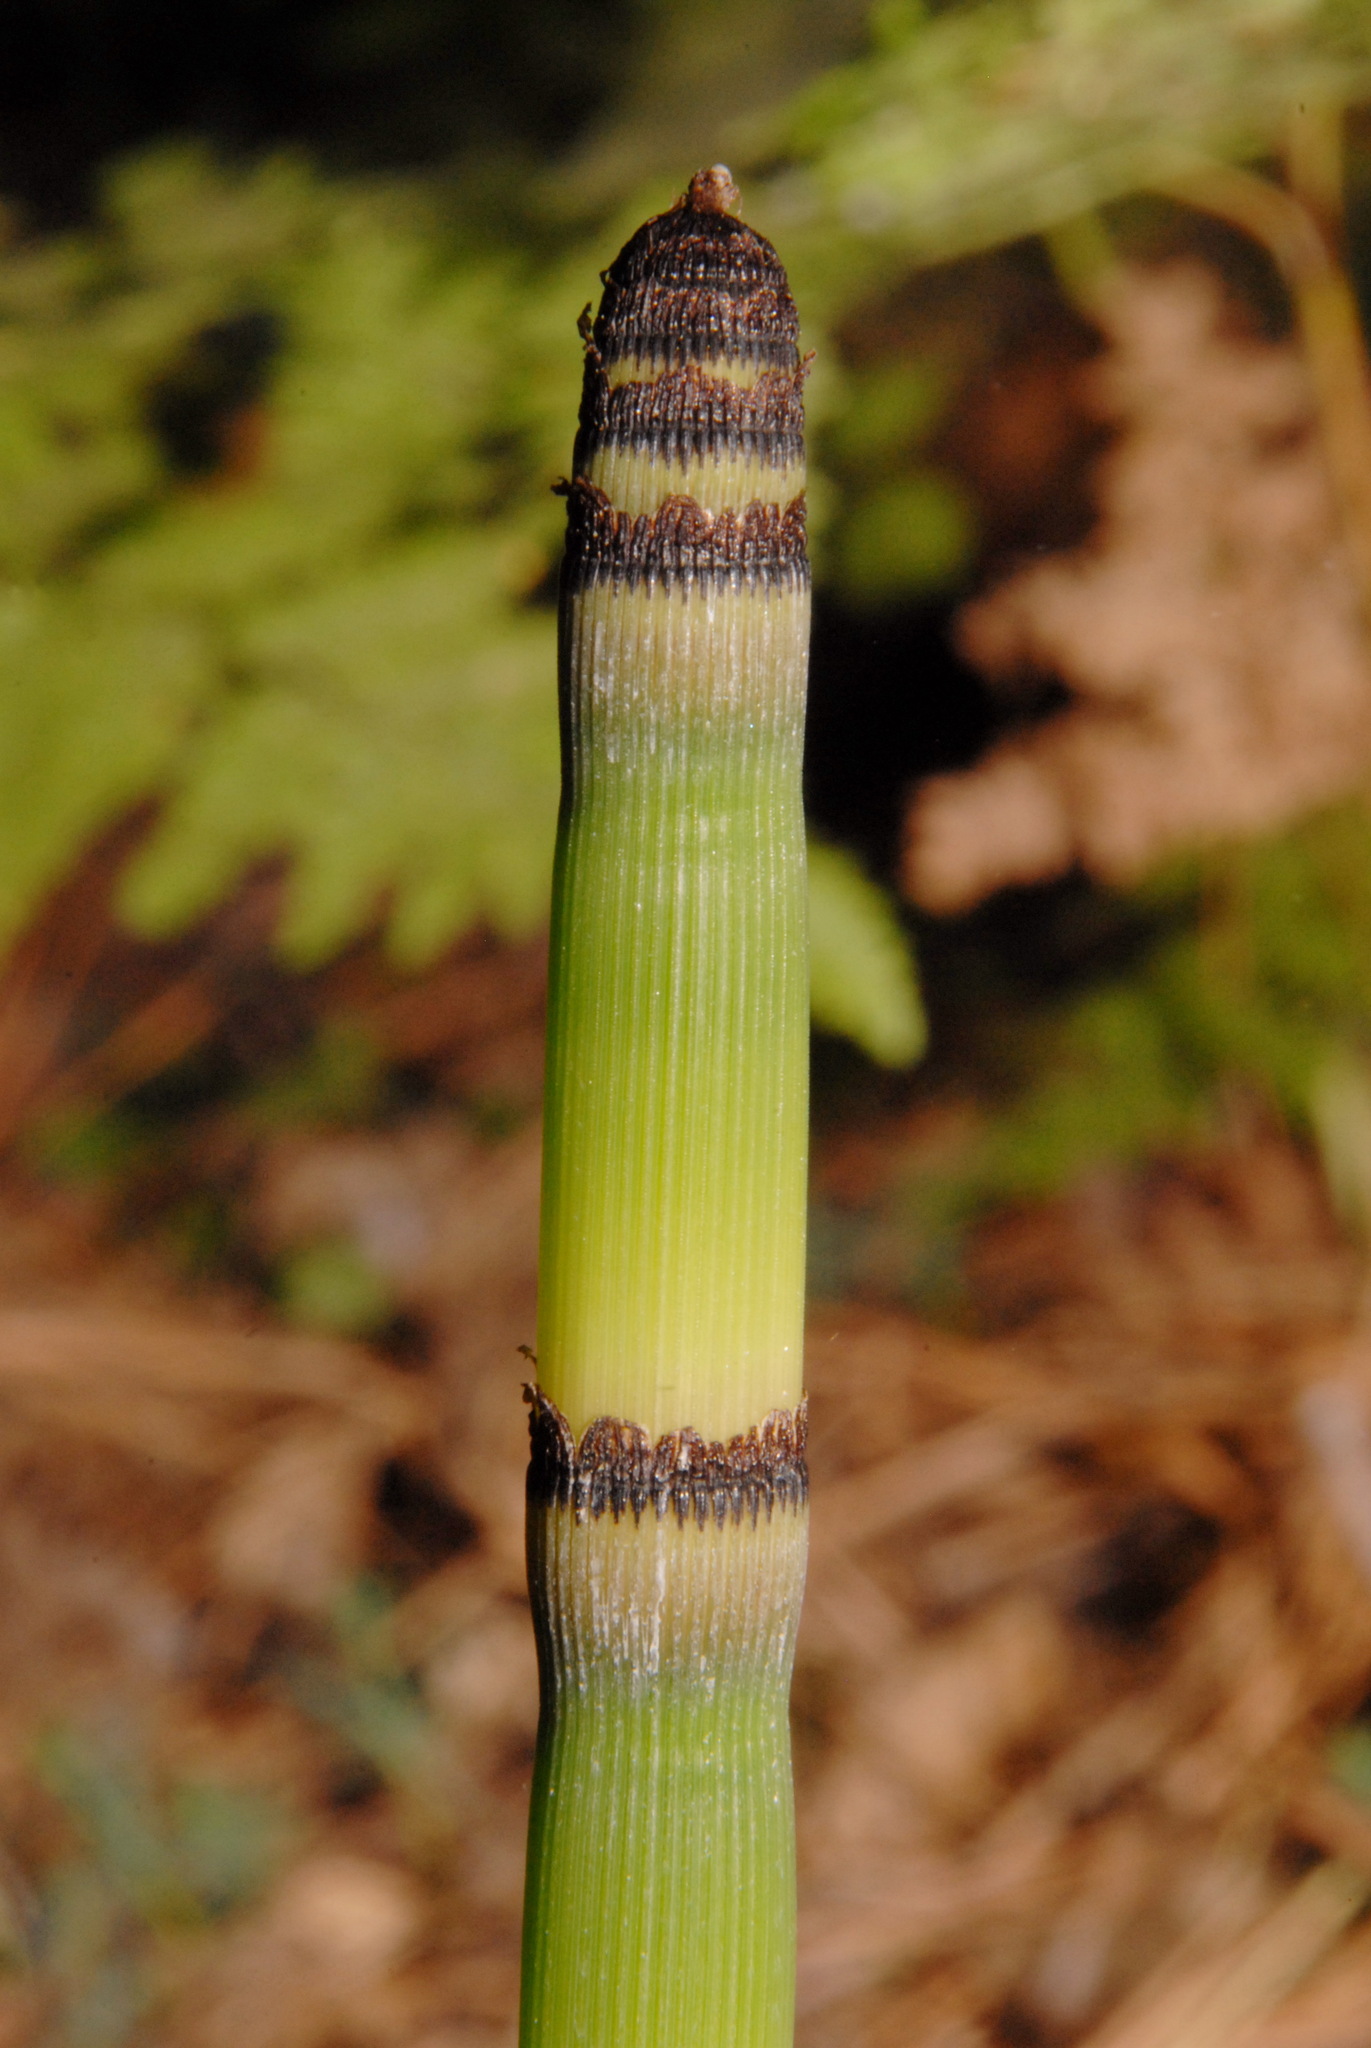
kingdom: Plantae
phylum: Tracheophyta
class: Polypodiopsida
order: Equisetales
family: Equisetaceae
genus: Equisetum
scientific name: Equisetum praealtum
